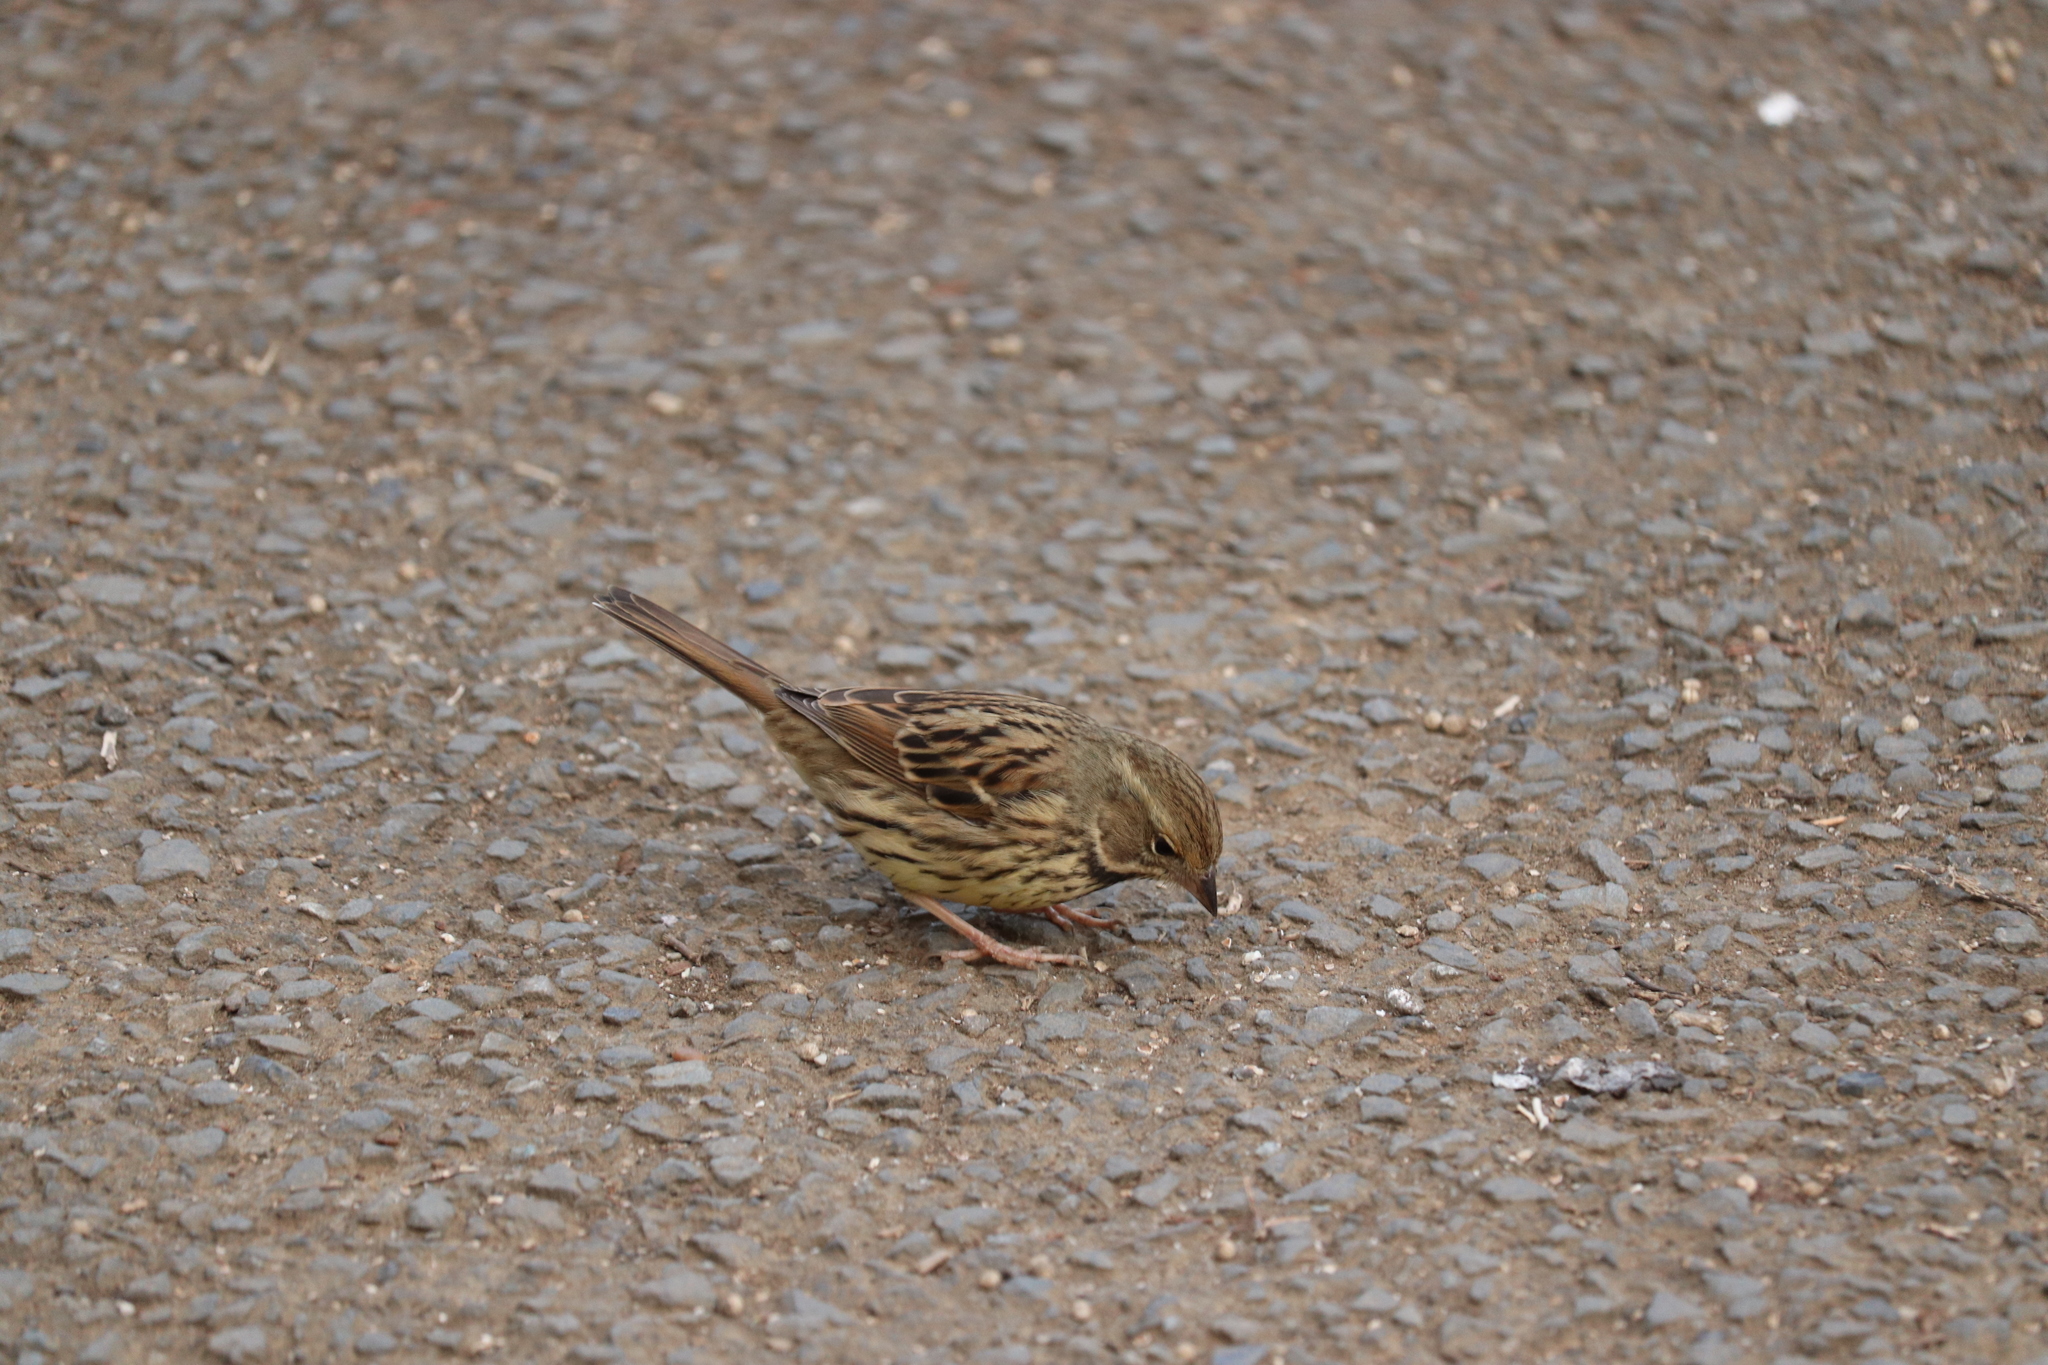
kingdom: Animalia
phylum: Chordata
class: Aves
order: Passeriformes
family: Emberizidae
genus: Emberiza
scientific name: Emberiza personata
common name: Masked bunting
